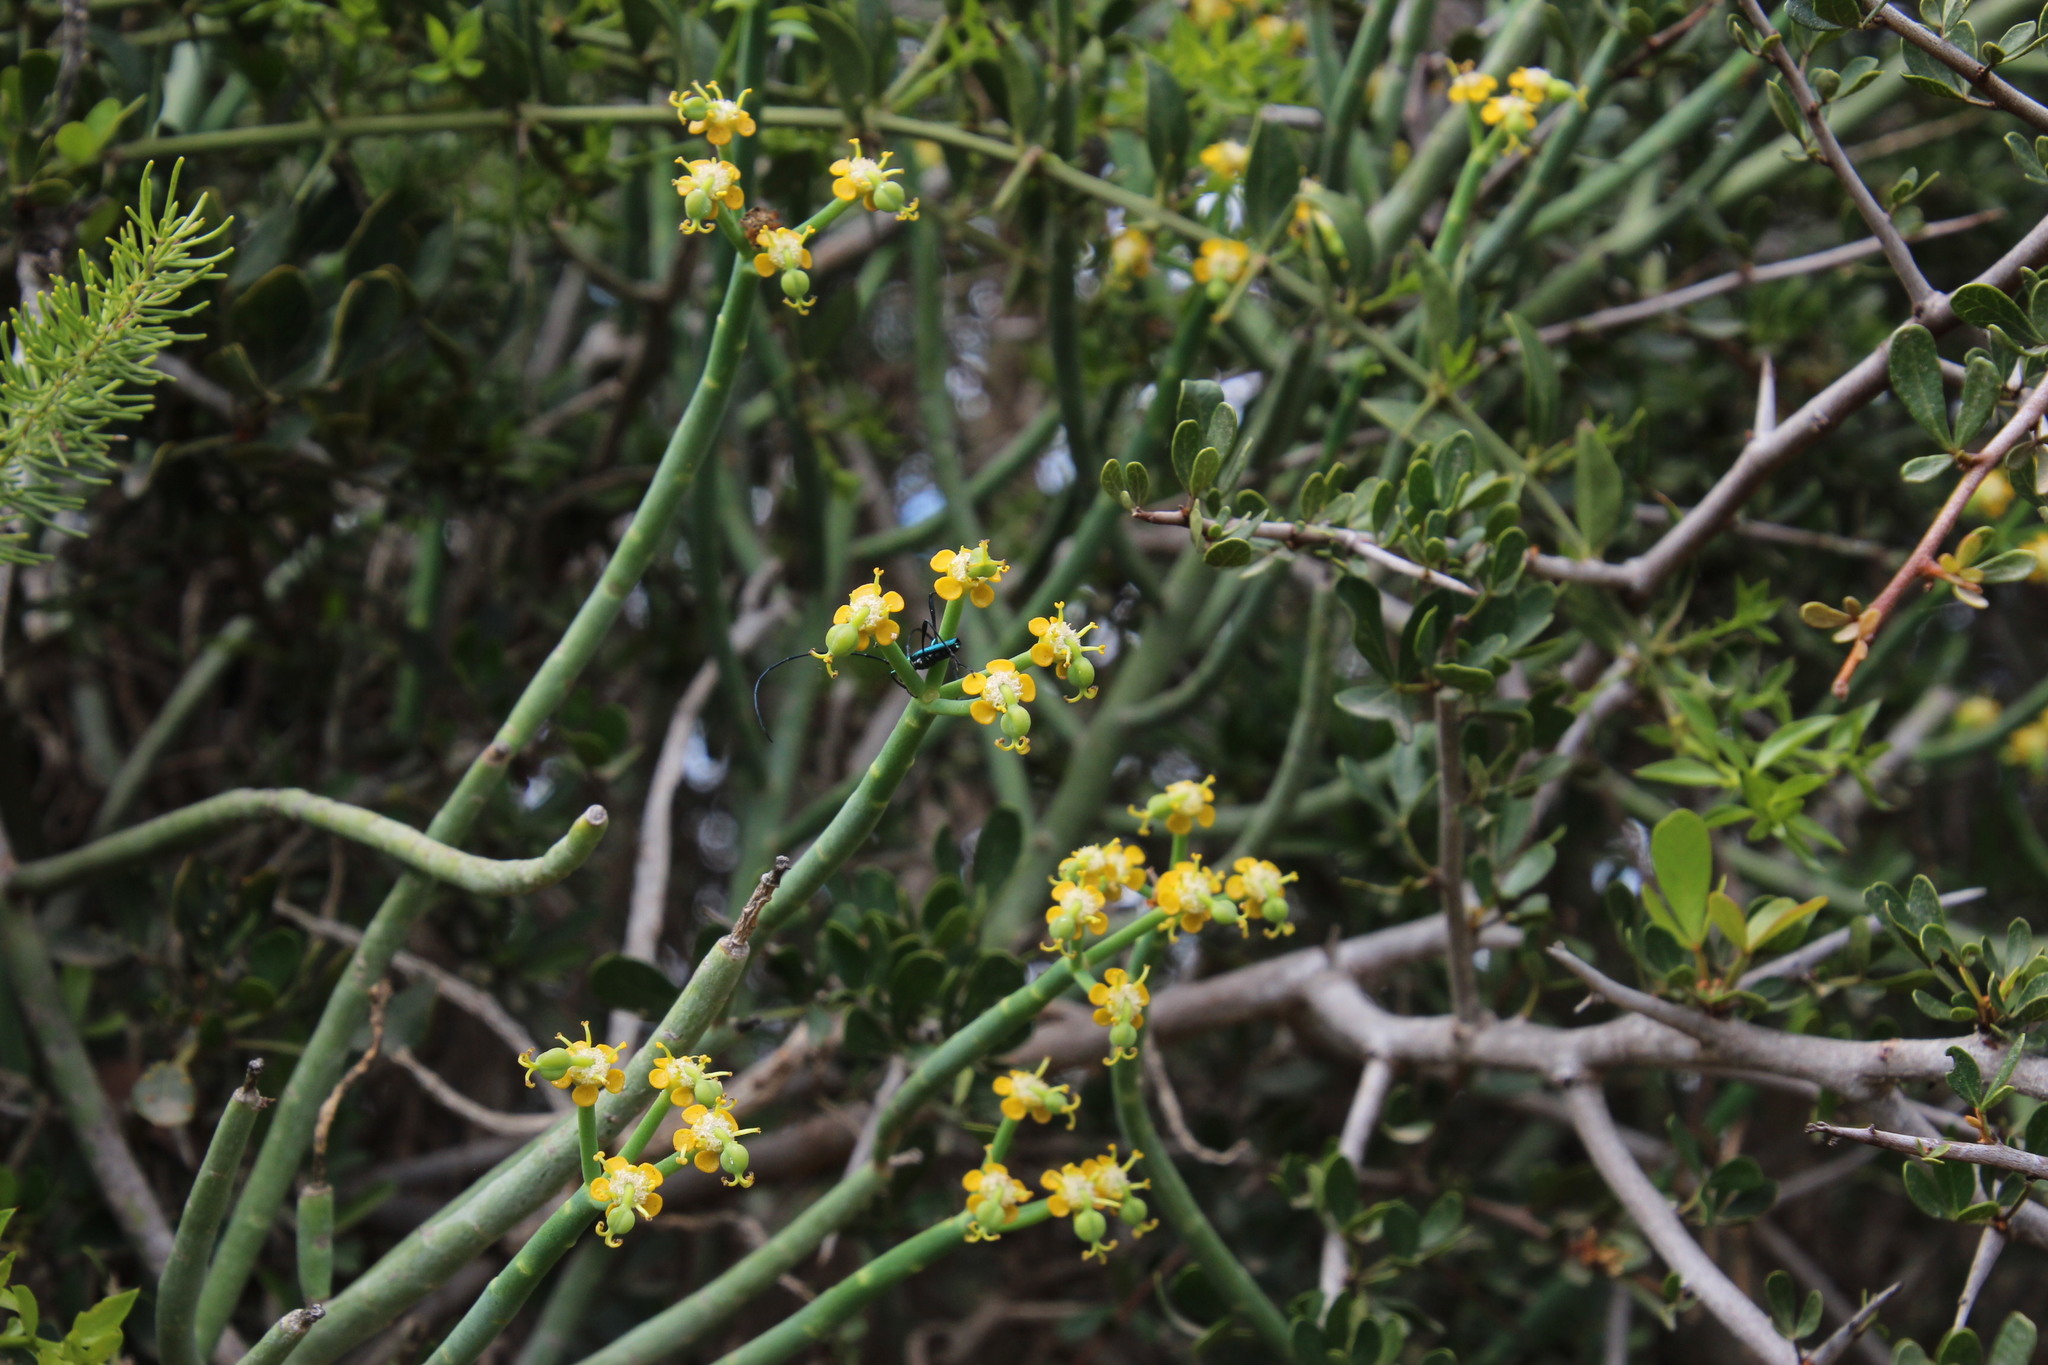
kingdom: Plantae
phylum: Tracheophyta
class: Magnoliopsida
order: Malpighiales
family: Euphorbiaceae
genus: Euphorbia
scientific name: Euphorbia mauritanica
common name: Jackal's-food
